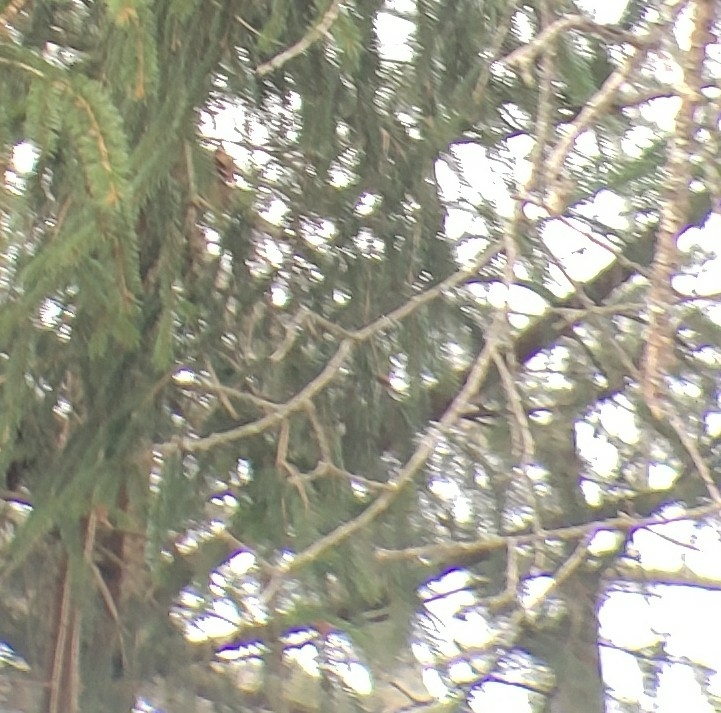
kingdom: Animalia
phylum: Chordata
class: Aves
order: Passeriformes
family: Mimidae
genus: Toxostoma
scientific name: Toxostoma rufum
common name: Brown thrasher
